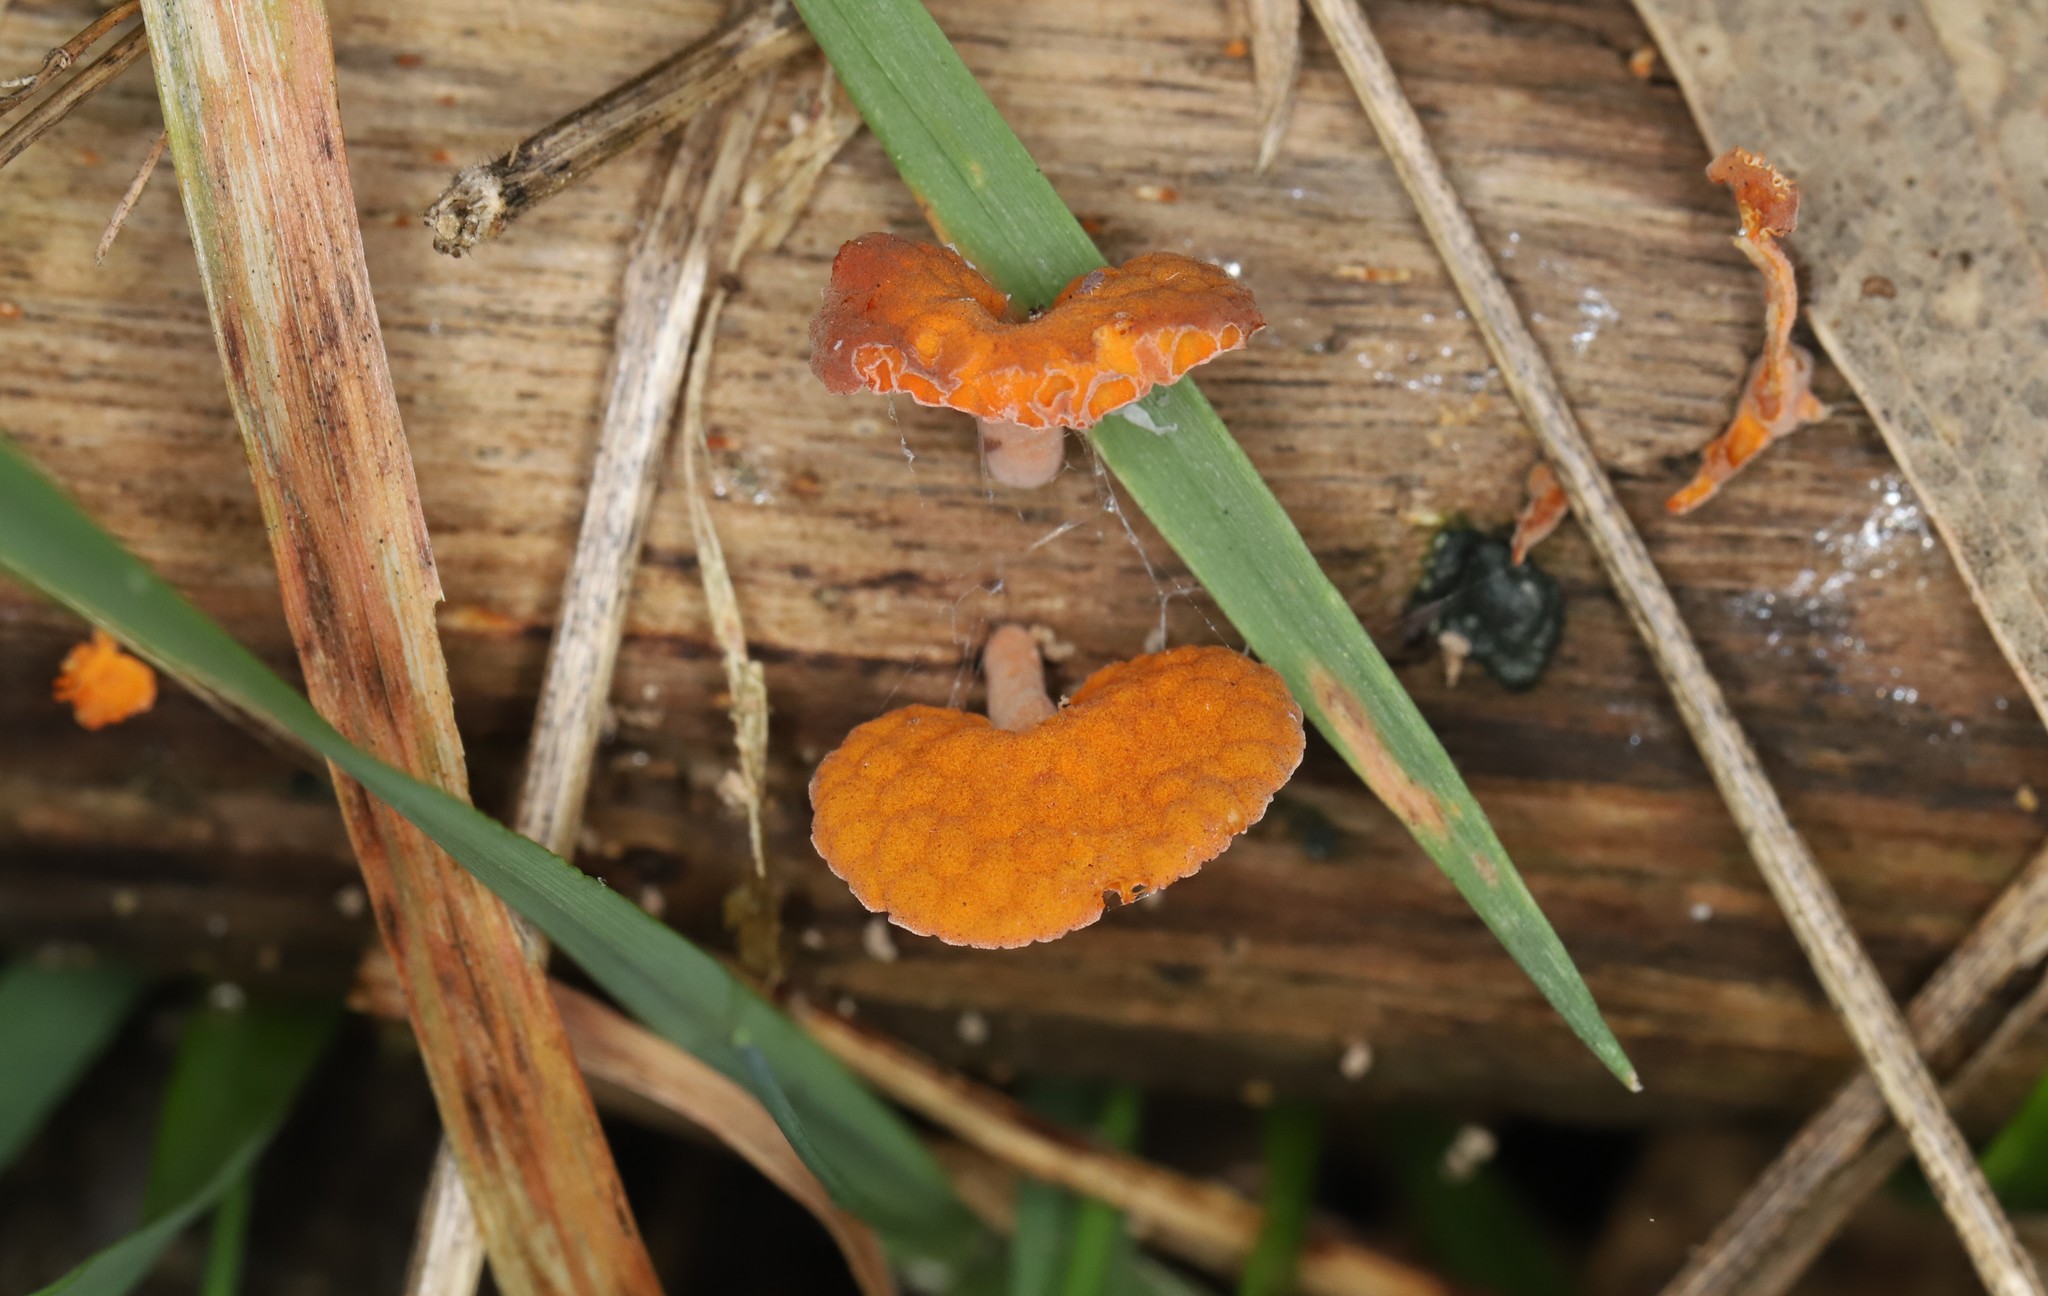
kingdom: Fungi
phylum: Basidiomycota
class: Agaricomycetes
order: Agaricales
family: Mycenaceae
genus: Favolaschia
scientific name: Favolaschia claudopus
